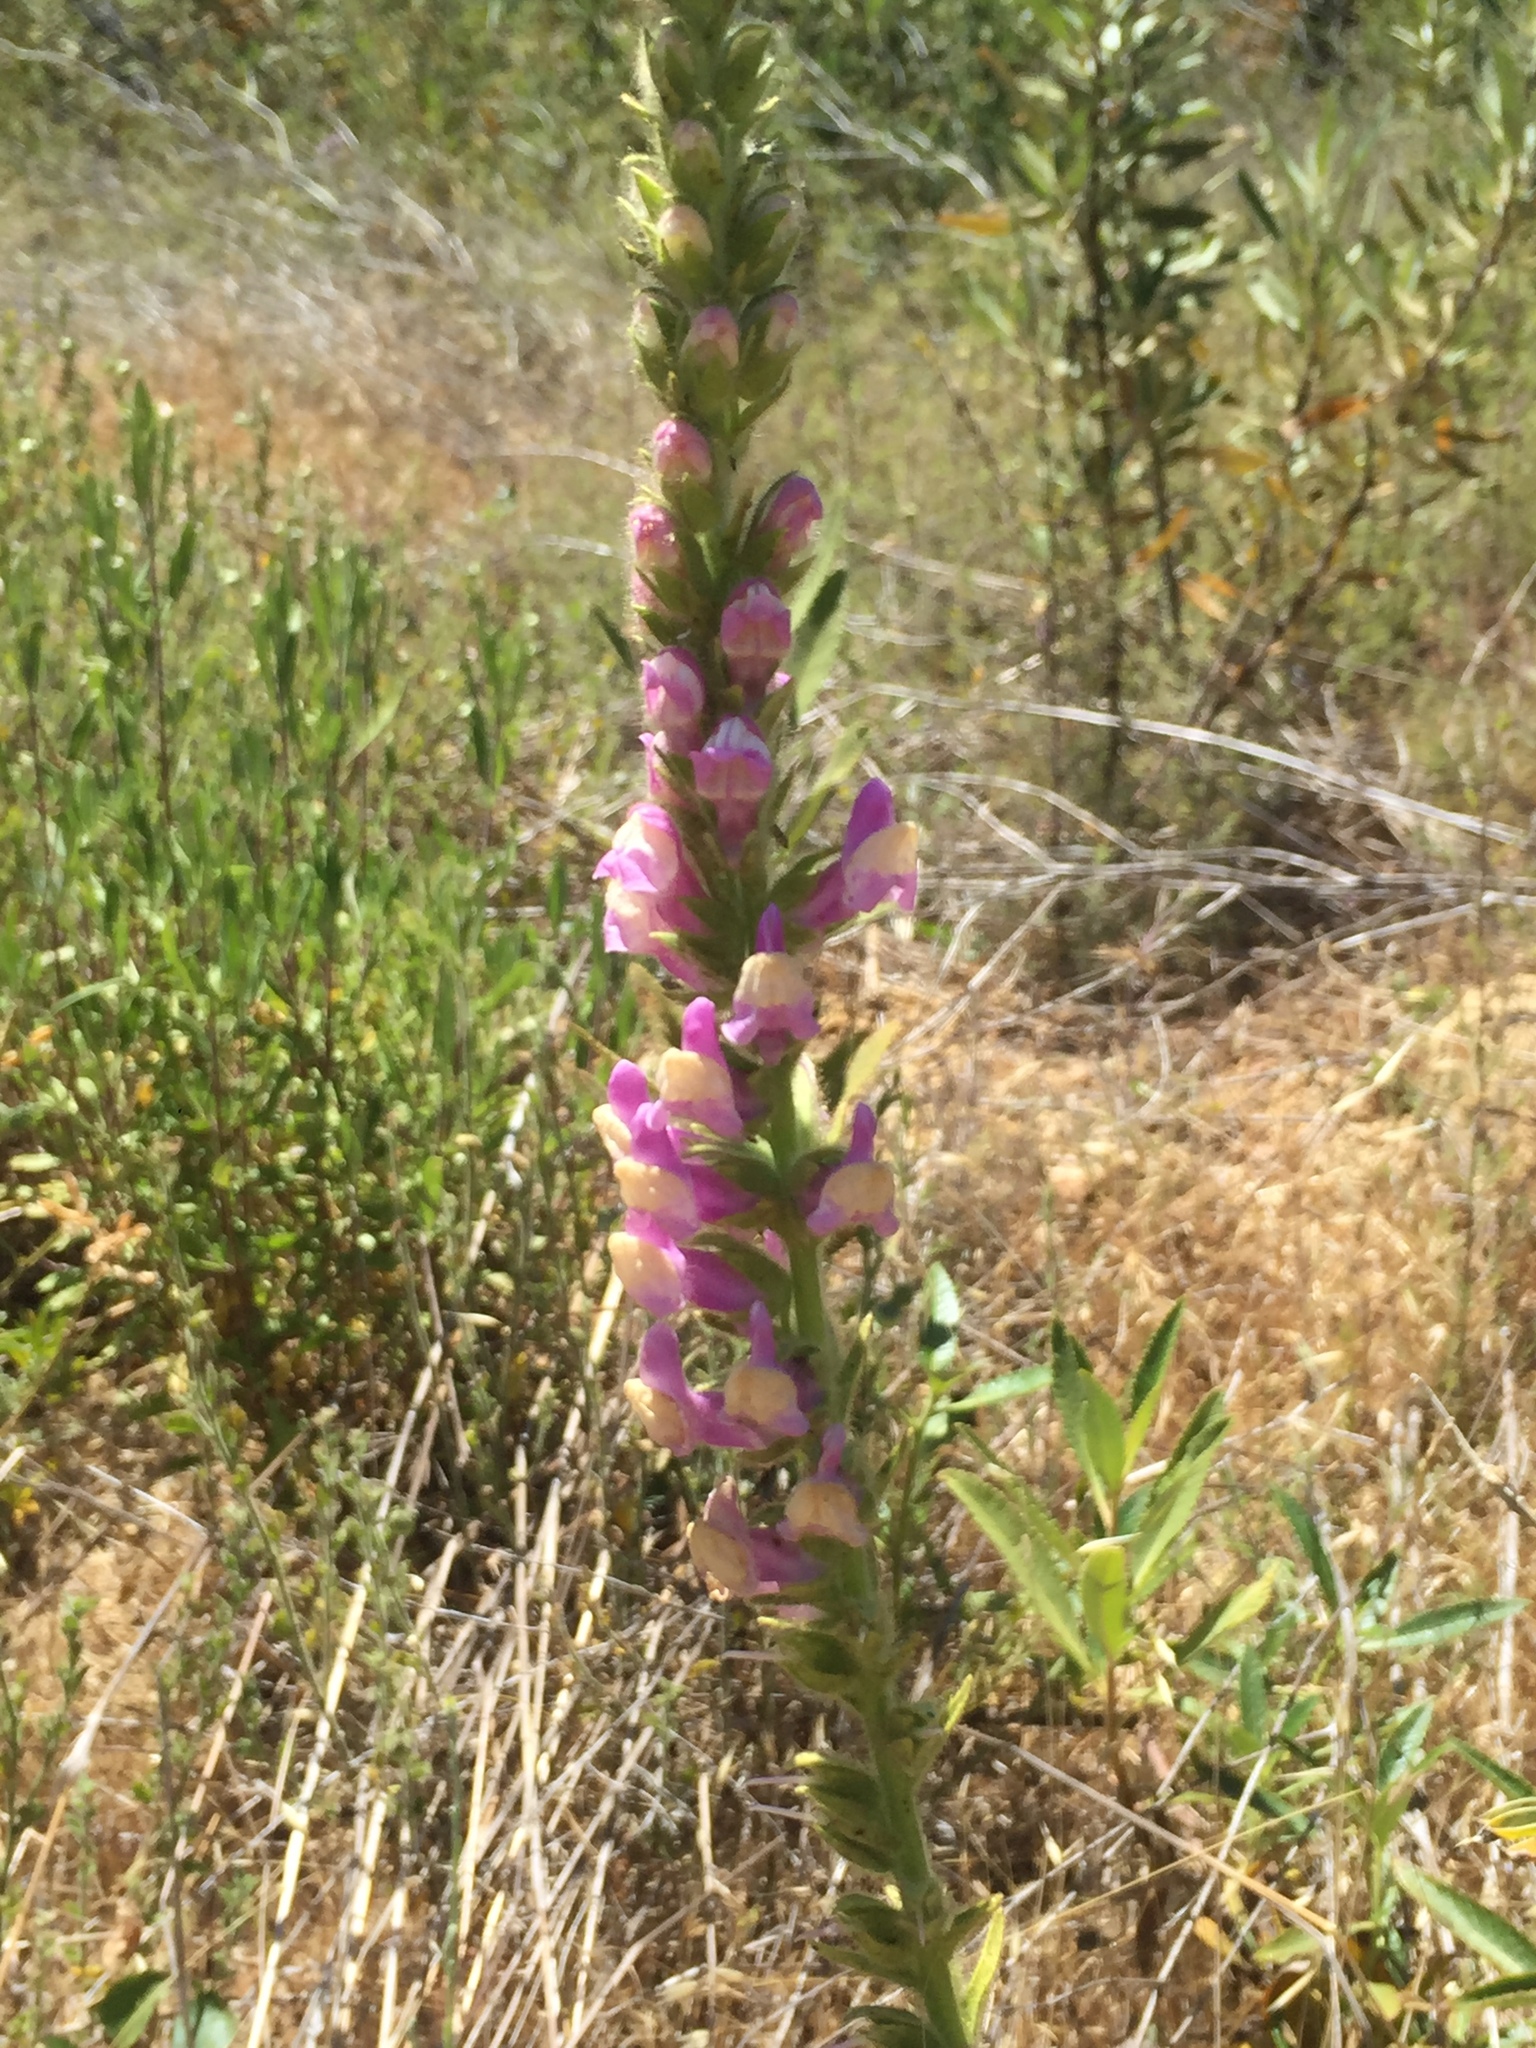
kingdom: Plantae
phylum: Tracheophyta
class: Magnoliopsida
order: Lamiales
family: Plantaginaceae
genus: Sairocarpus
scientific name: Sairocarpus multiflorus
